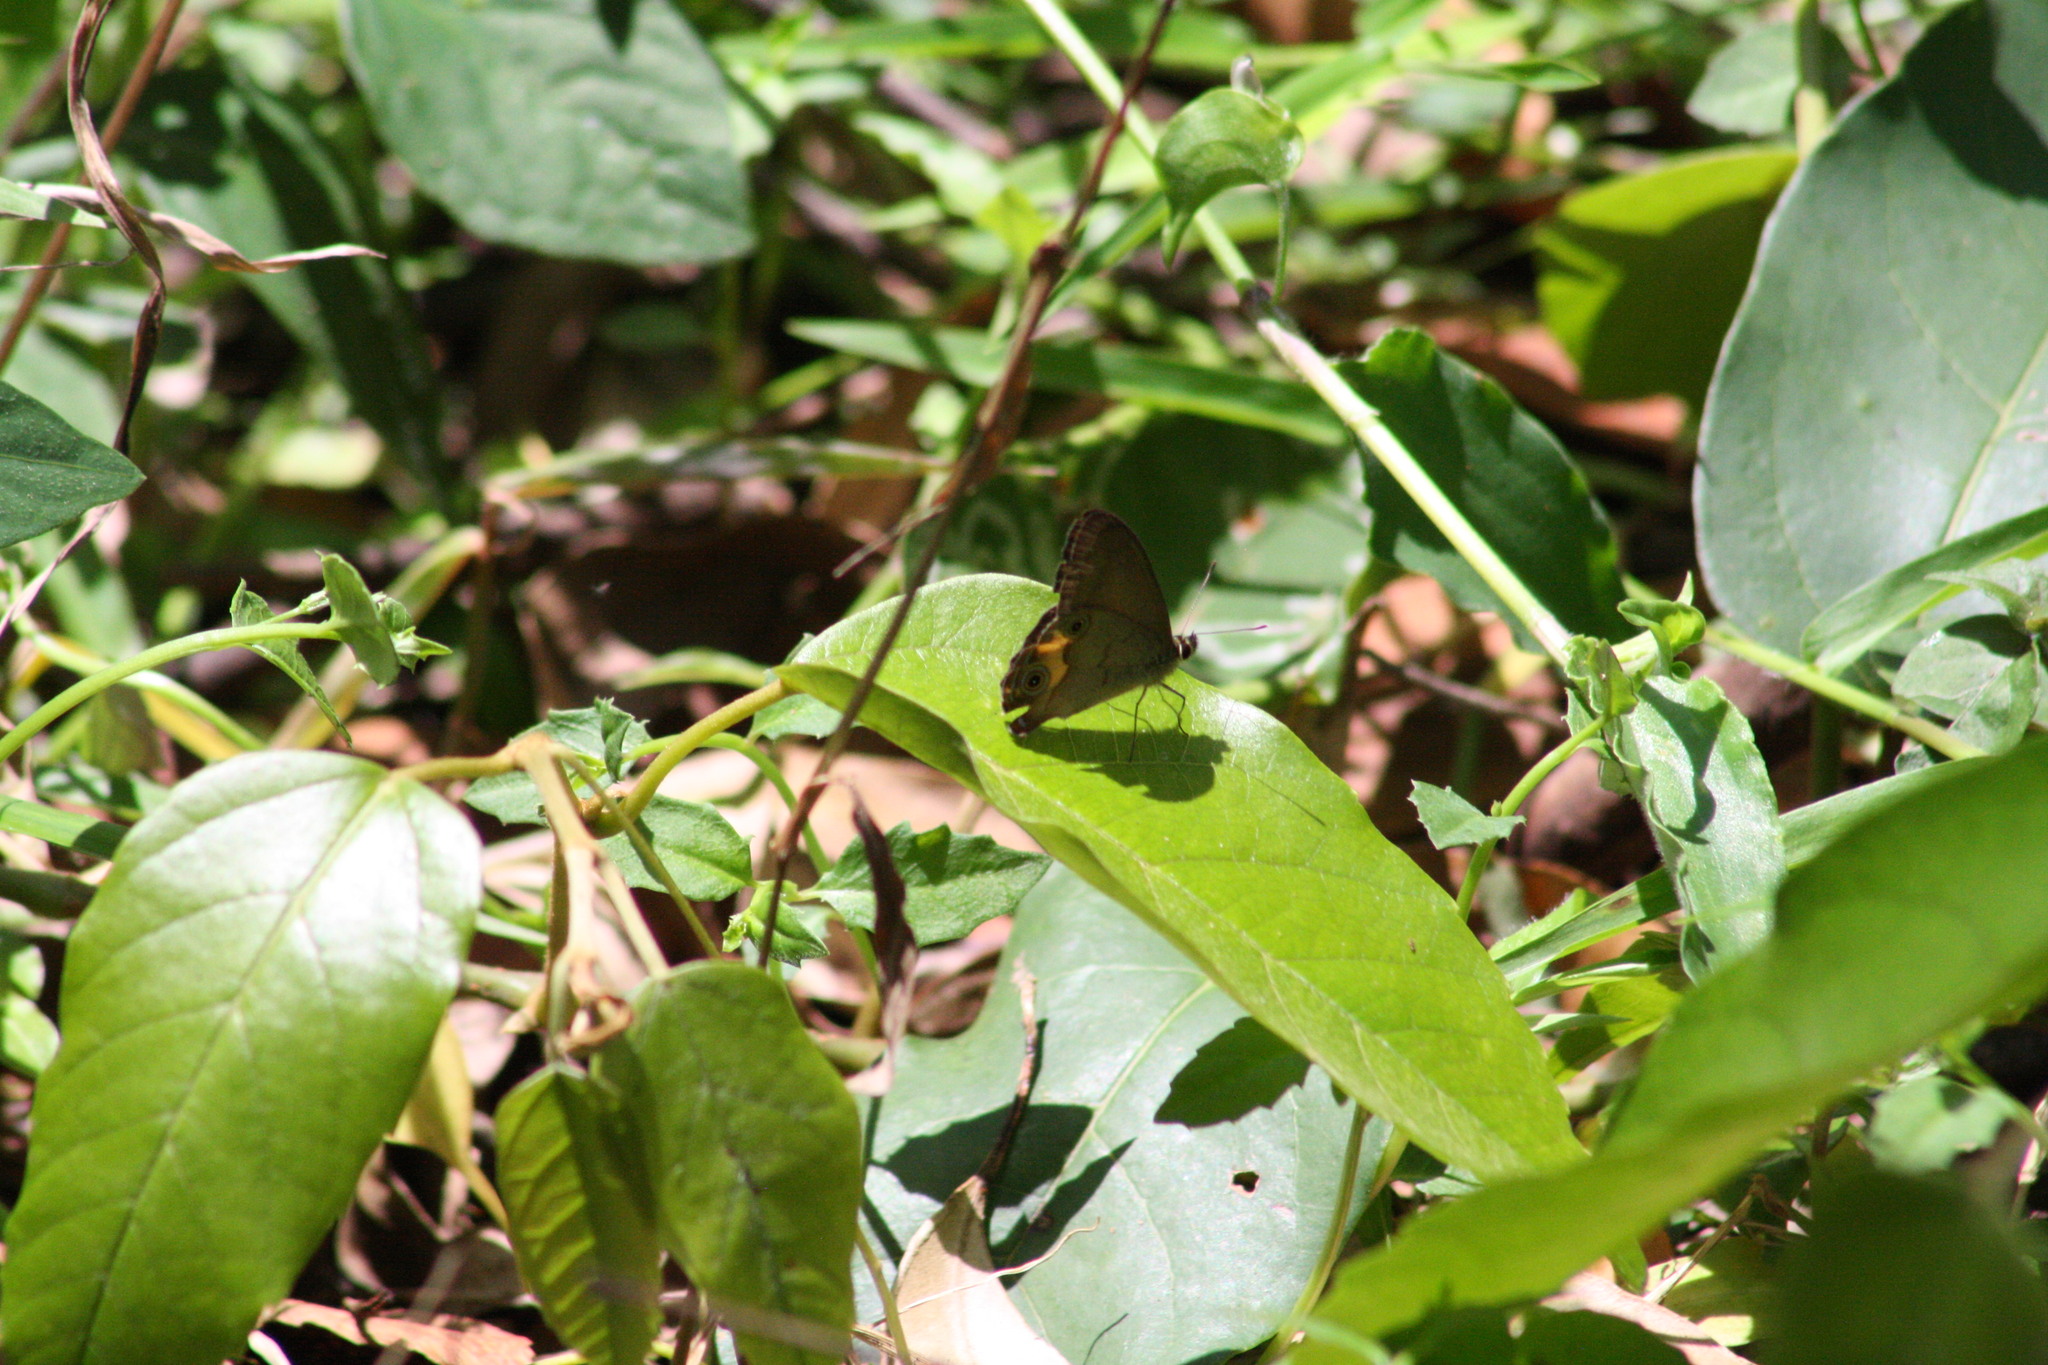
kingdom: Animalia
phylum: Arthropoda
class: Insecta
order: Lepidoptera
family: Nymphalidae
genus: Hypocysta
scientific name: Hypocysta metirius
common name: Brown ringlet
